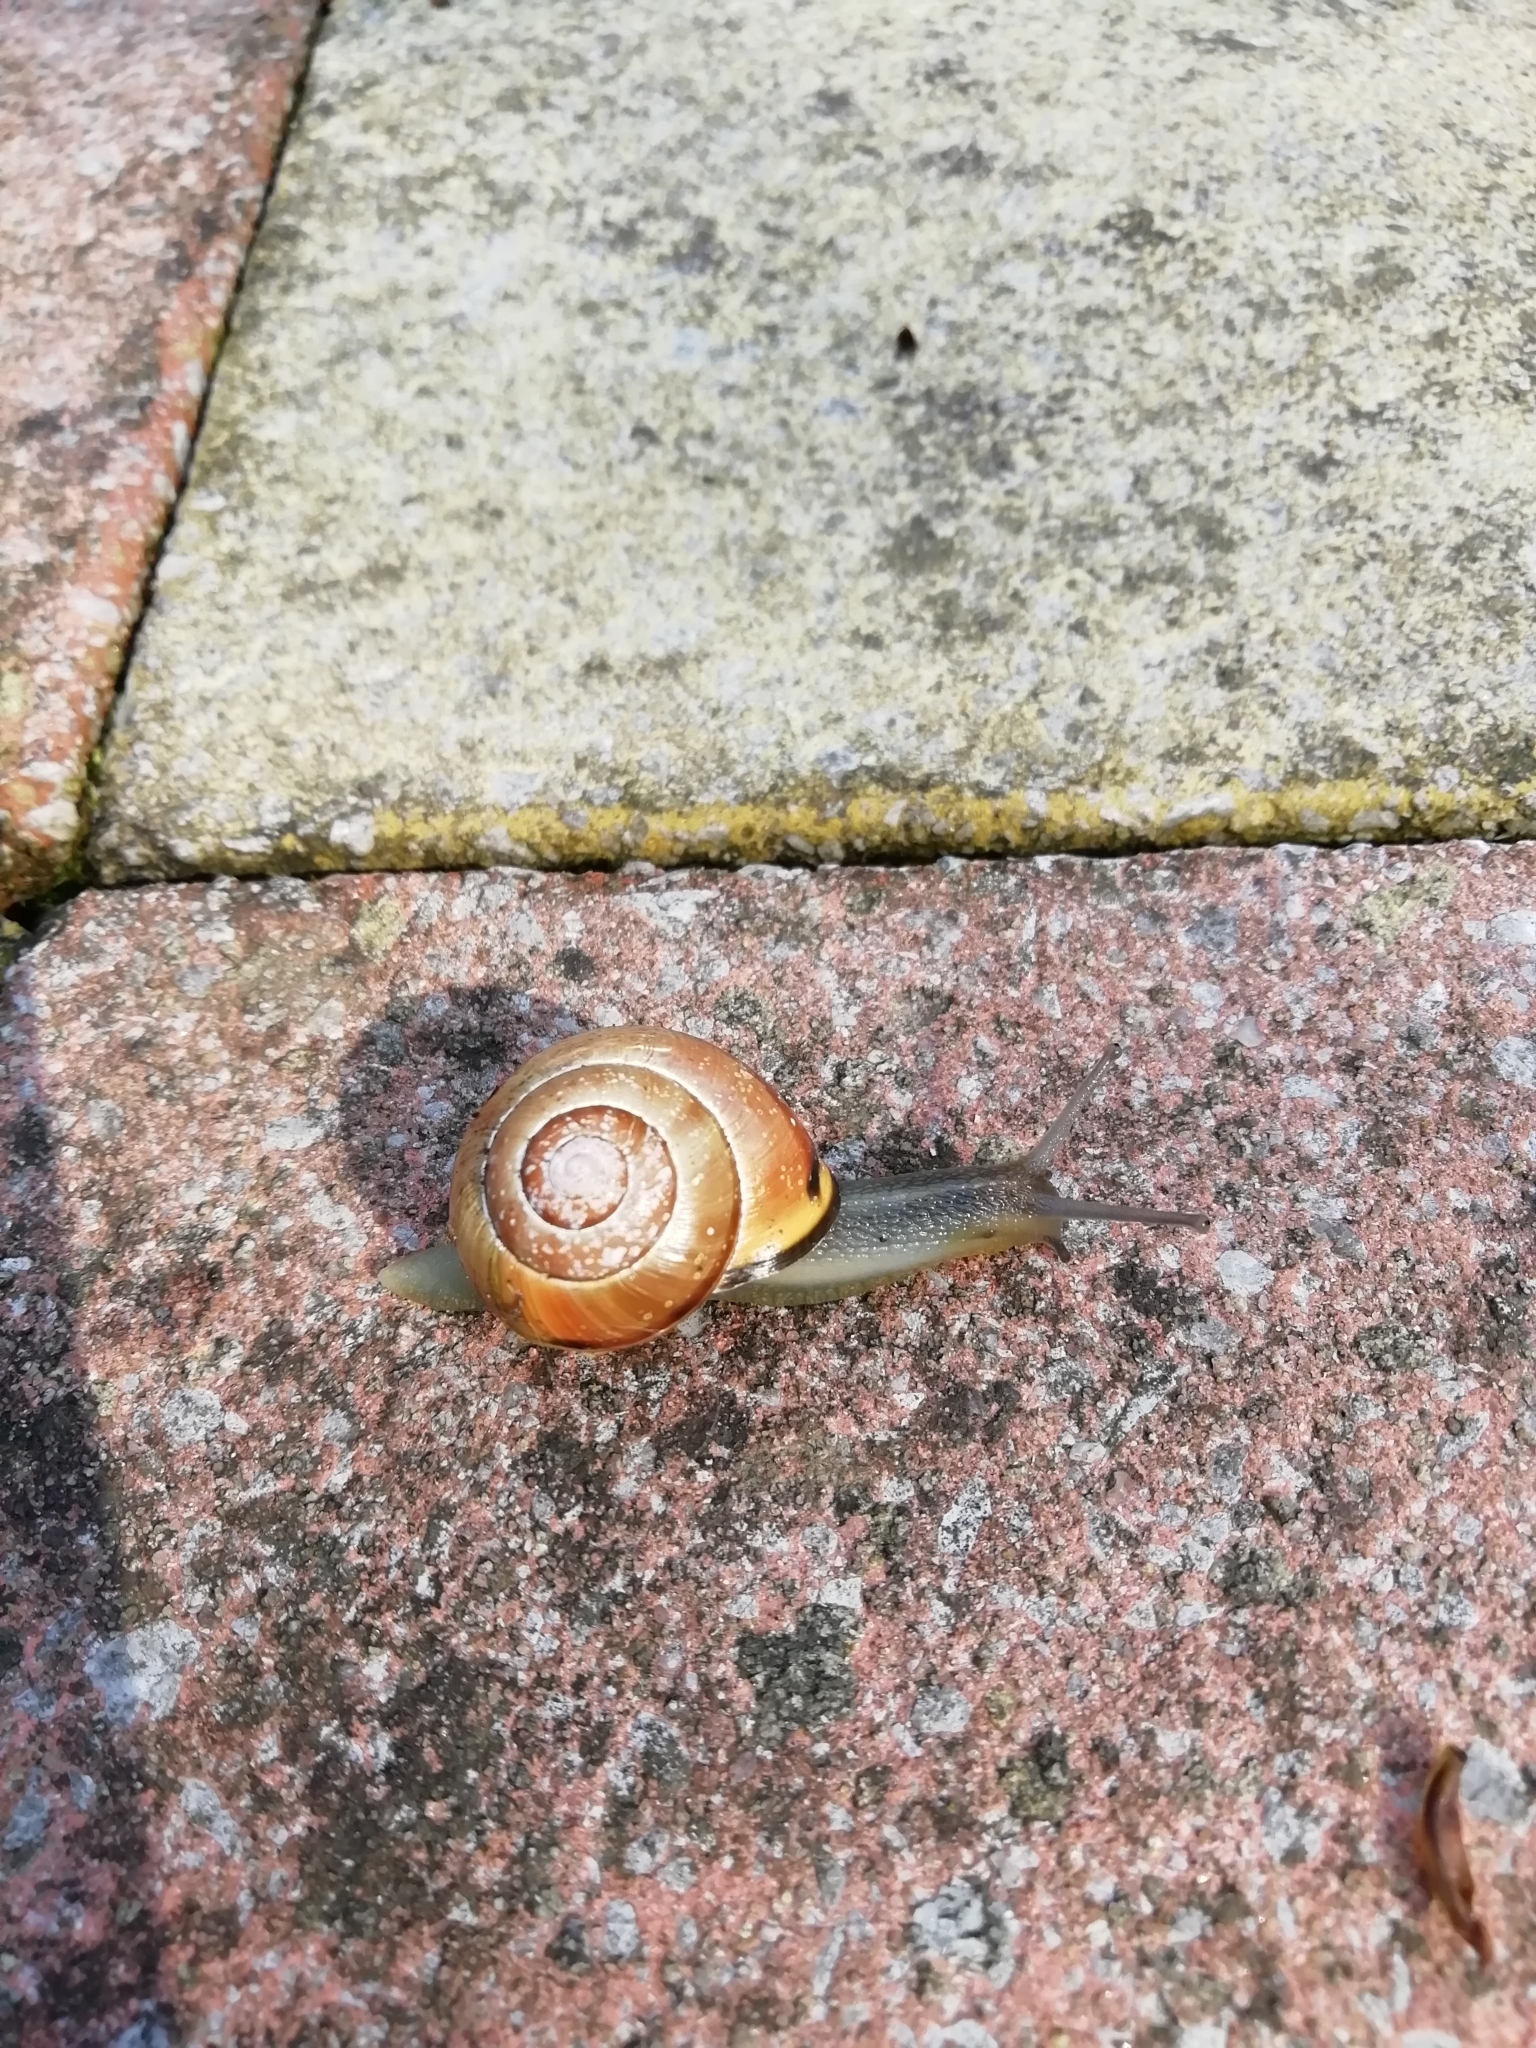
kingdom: Animalia
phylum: Mollusca
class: Gastropoda
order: Stylommatophora
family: Helicidae
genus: Cepaea
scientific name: Cepaea nemoralis
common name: Grovesnail
